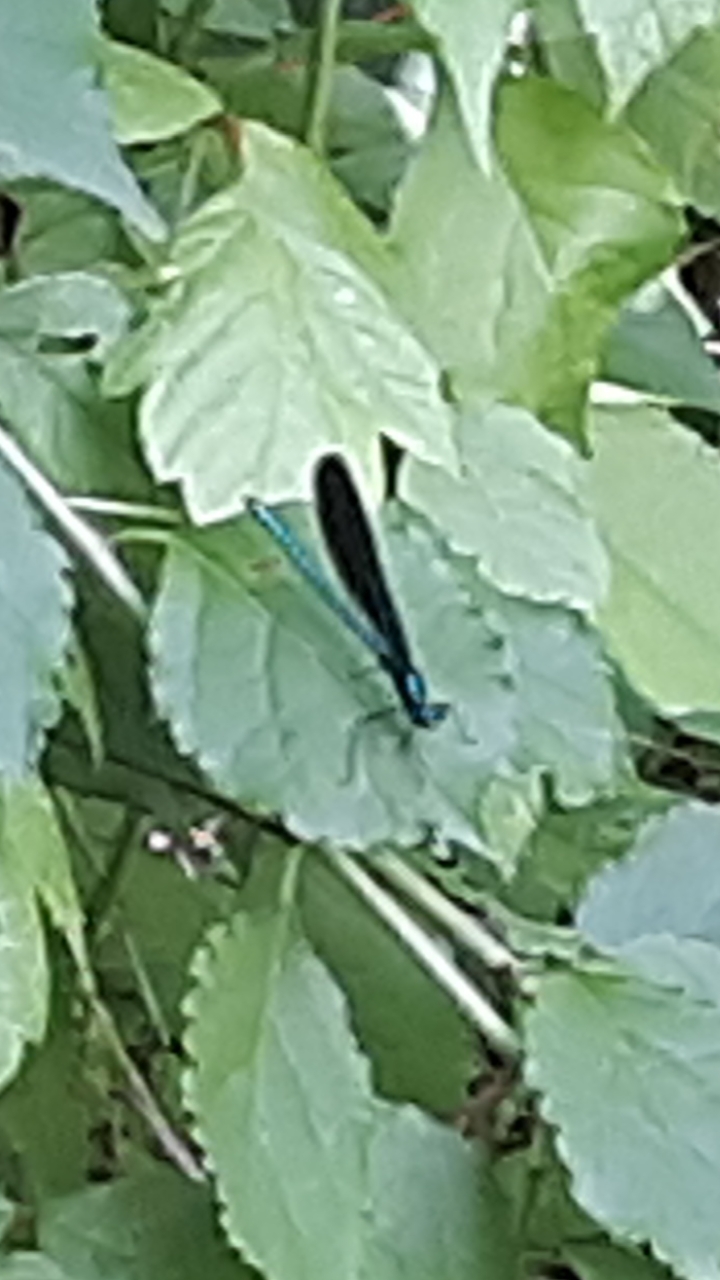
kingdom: Animalia
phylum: Arthropoda
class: Insecta
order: Odonata
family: Calopterygidae
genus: Calopteryx
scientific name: Calopteryx maculata
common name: Ebony jewelwing
